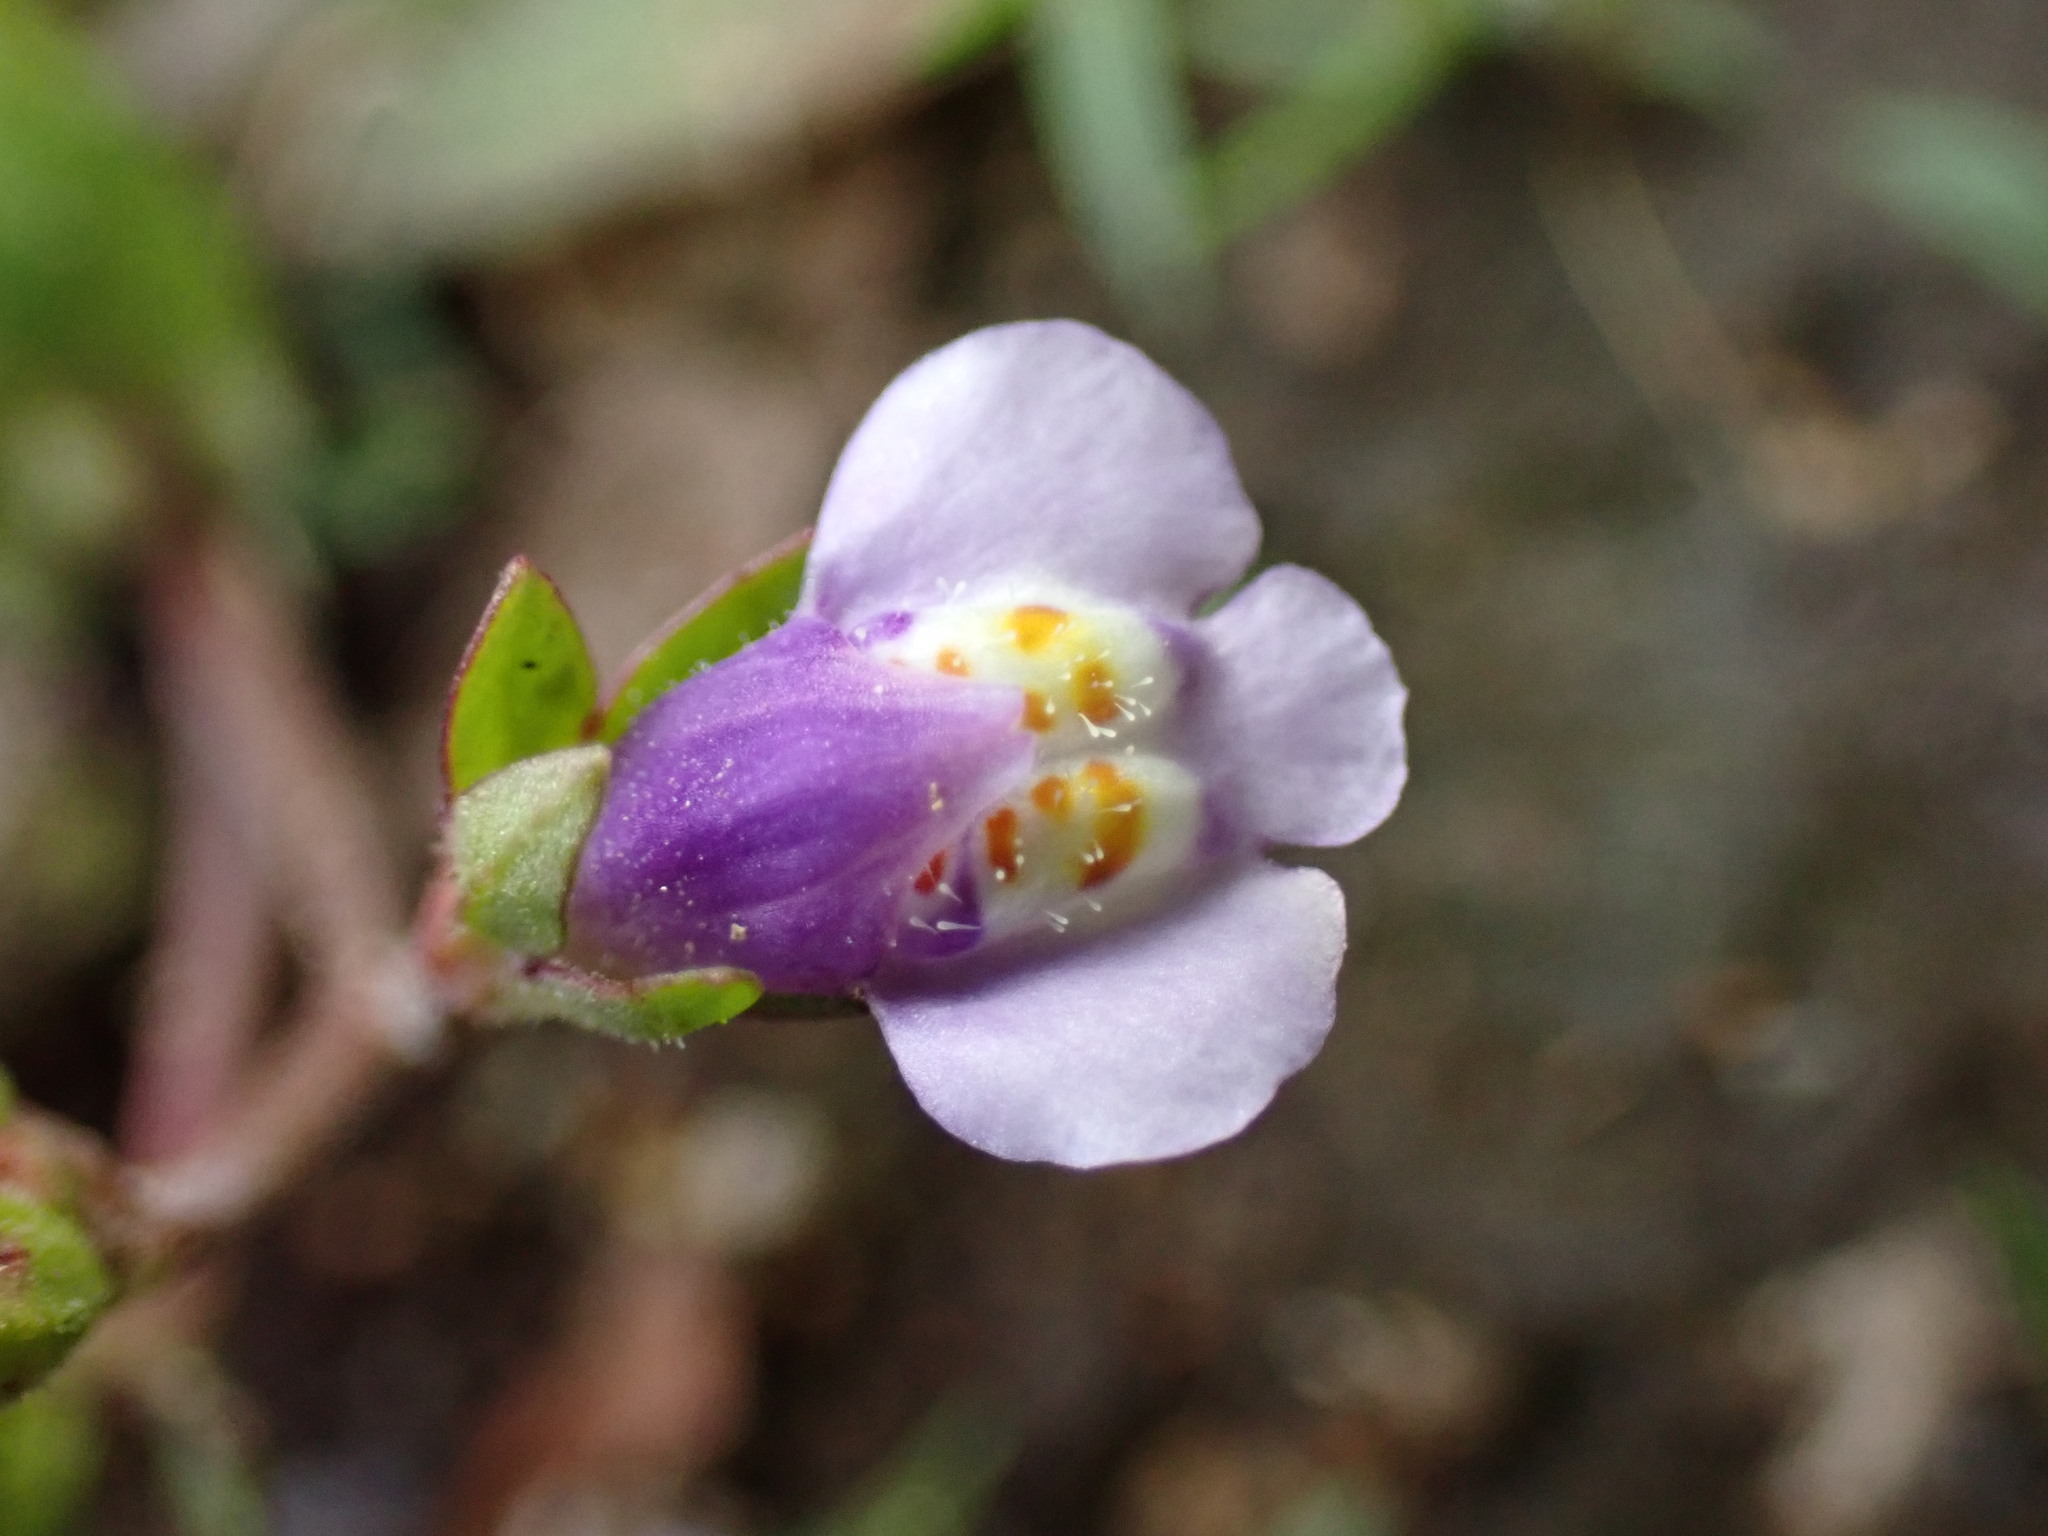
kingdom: Plantae
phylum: Tracheophyta
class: Magnoliopsida
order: Lamiales
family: Mazaceae
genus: Mazus
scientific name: Mazus pumilus
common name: Japanese mazus
